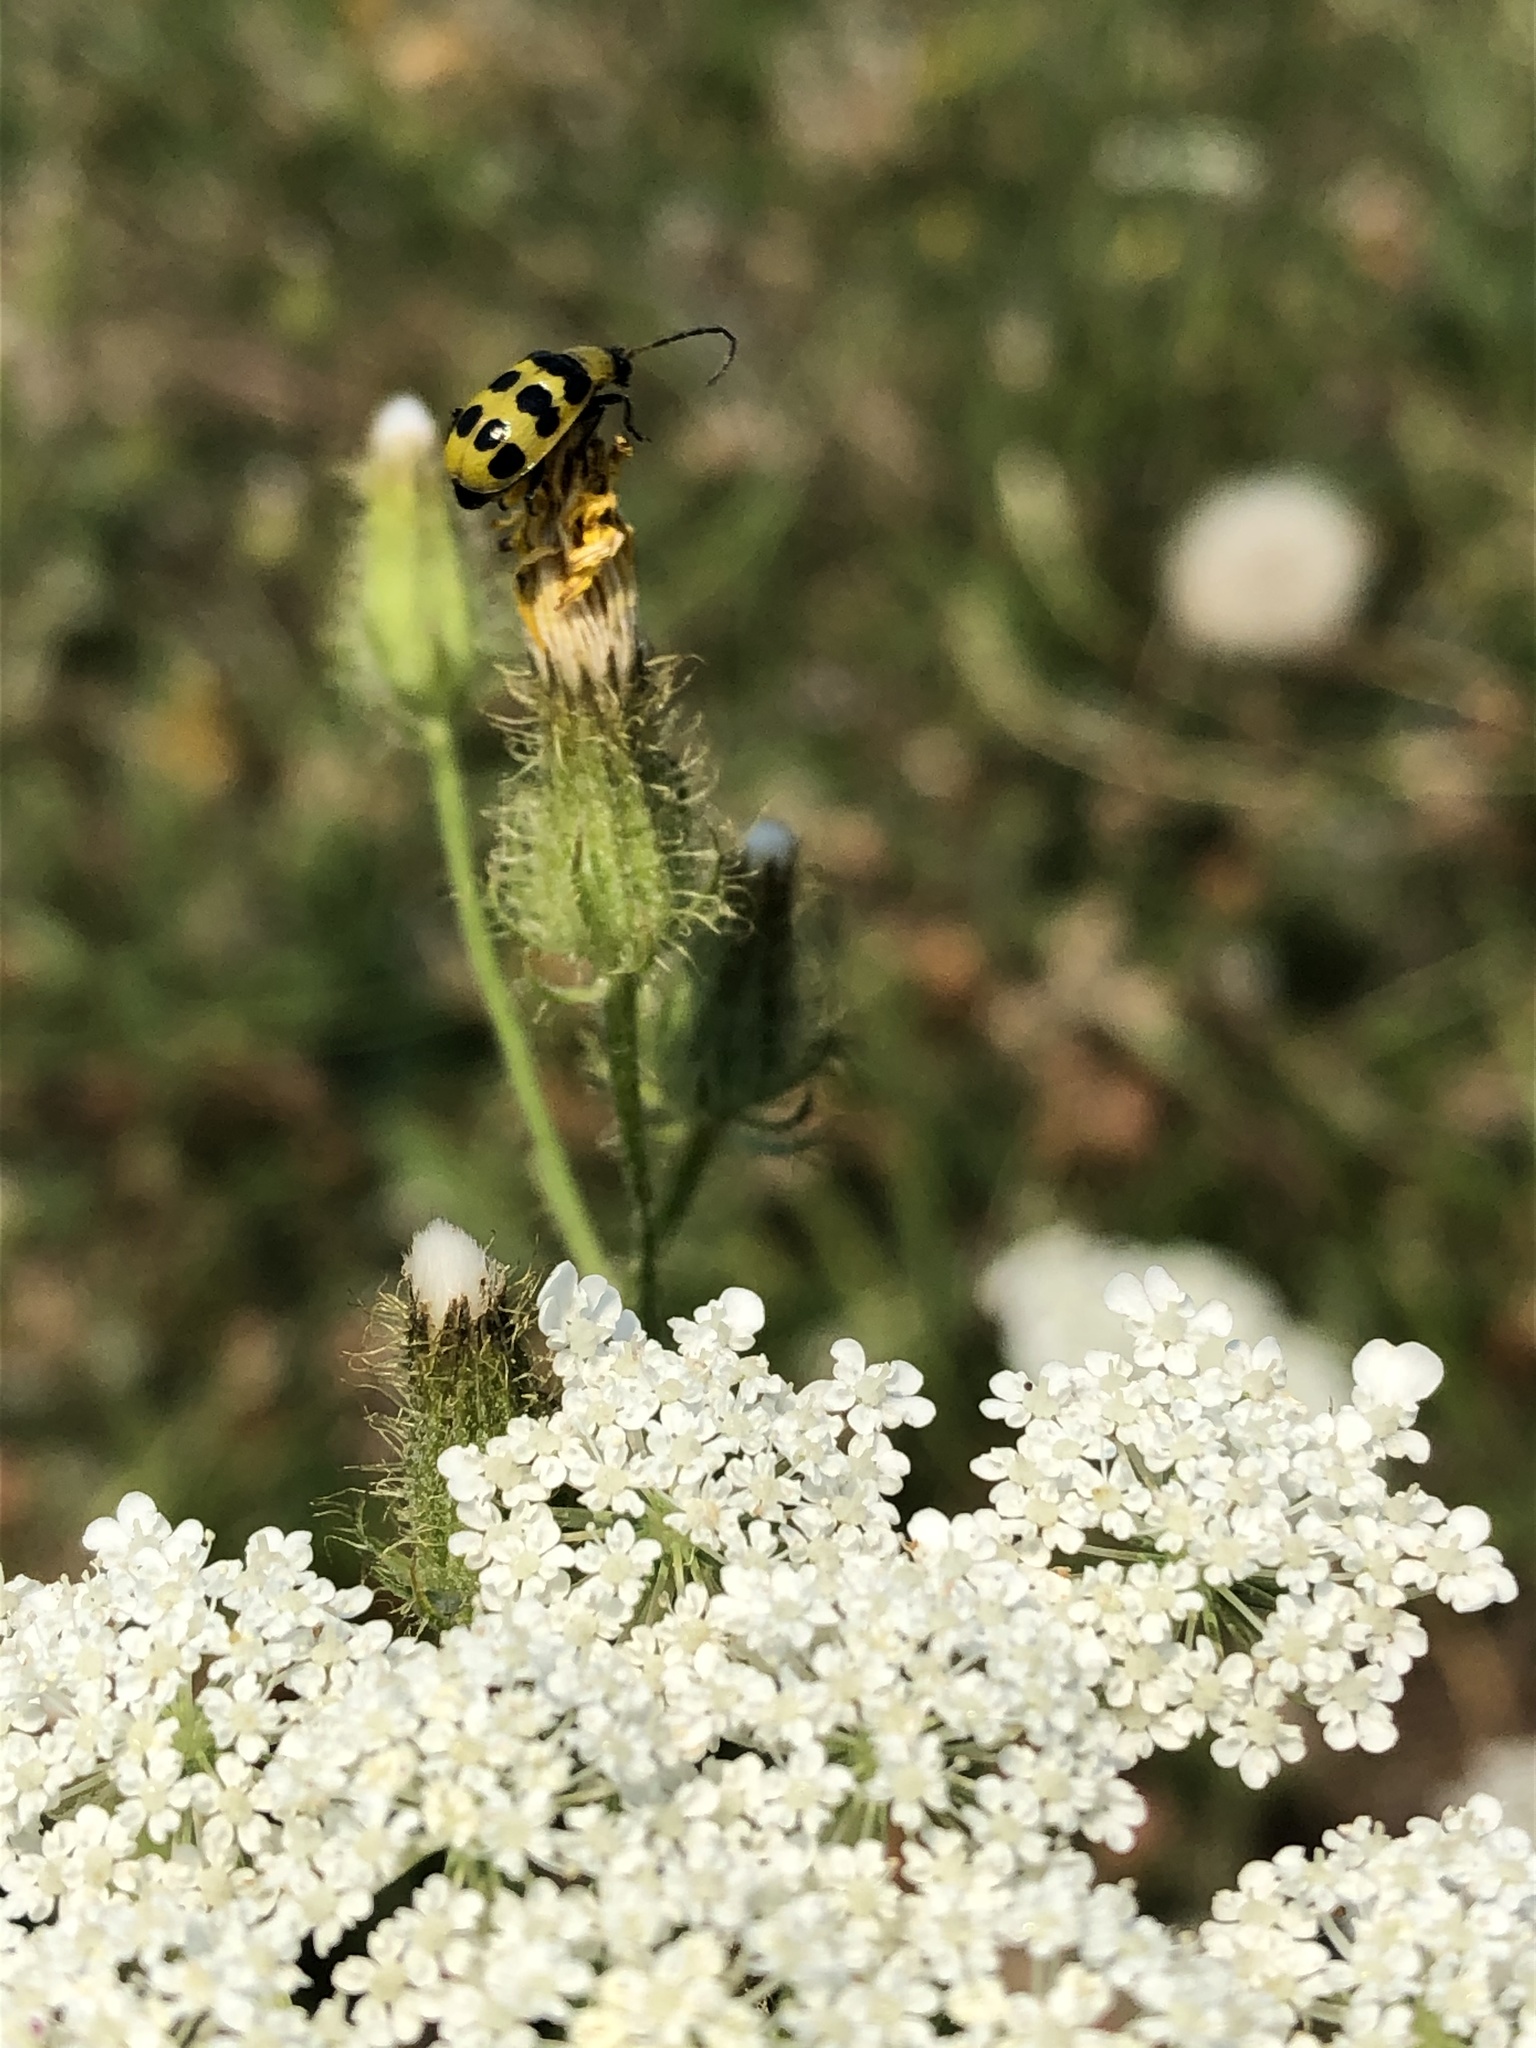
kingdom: Animalia
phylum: Arthropoda
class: Insecta
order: Coleoptera
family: Chrysomelidae
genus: Diabrotica
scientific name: Diabrotica undecimpunctata
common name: Spotted cucumber beetle
